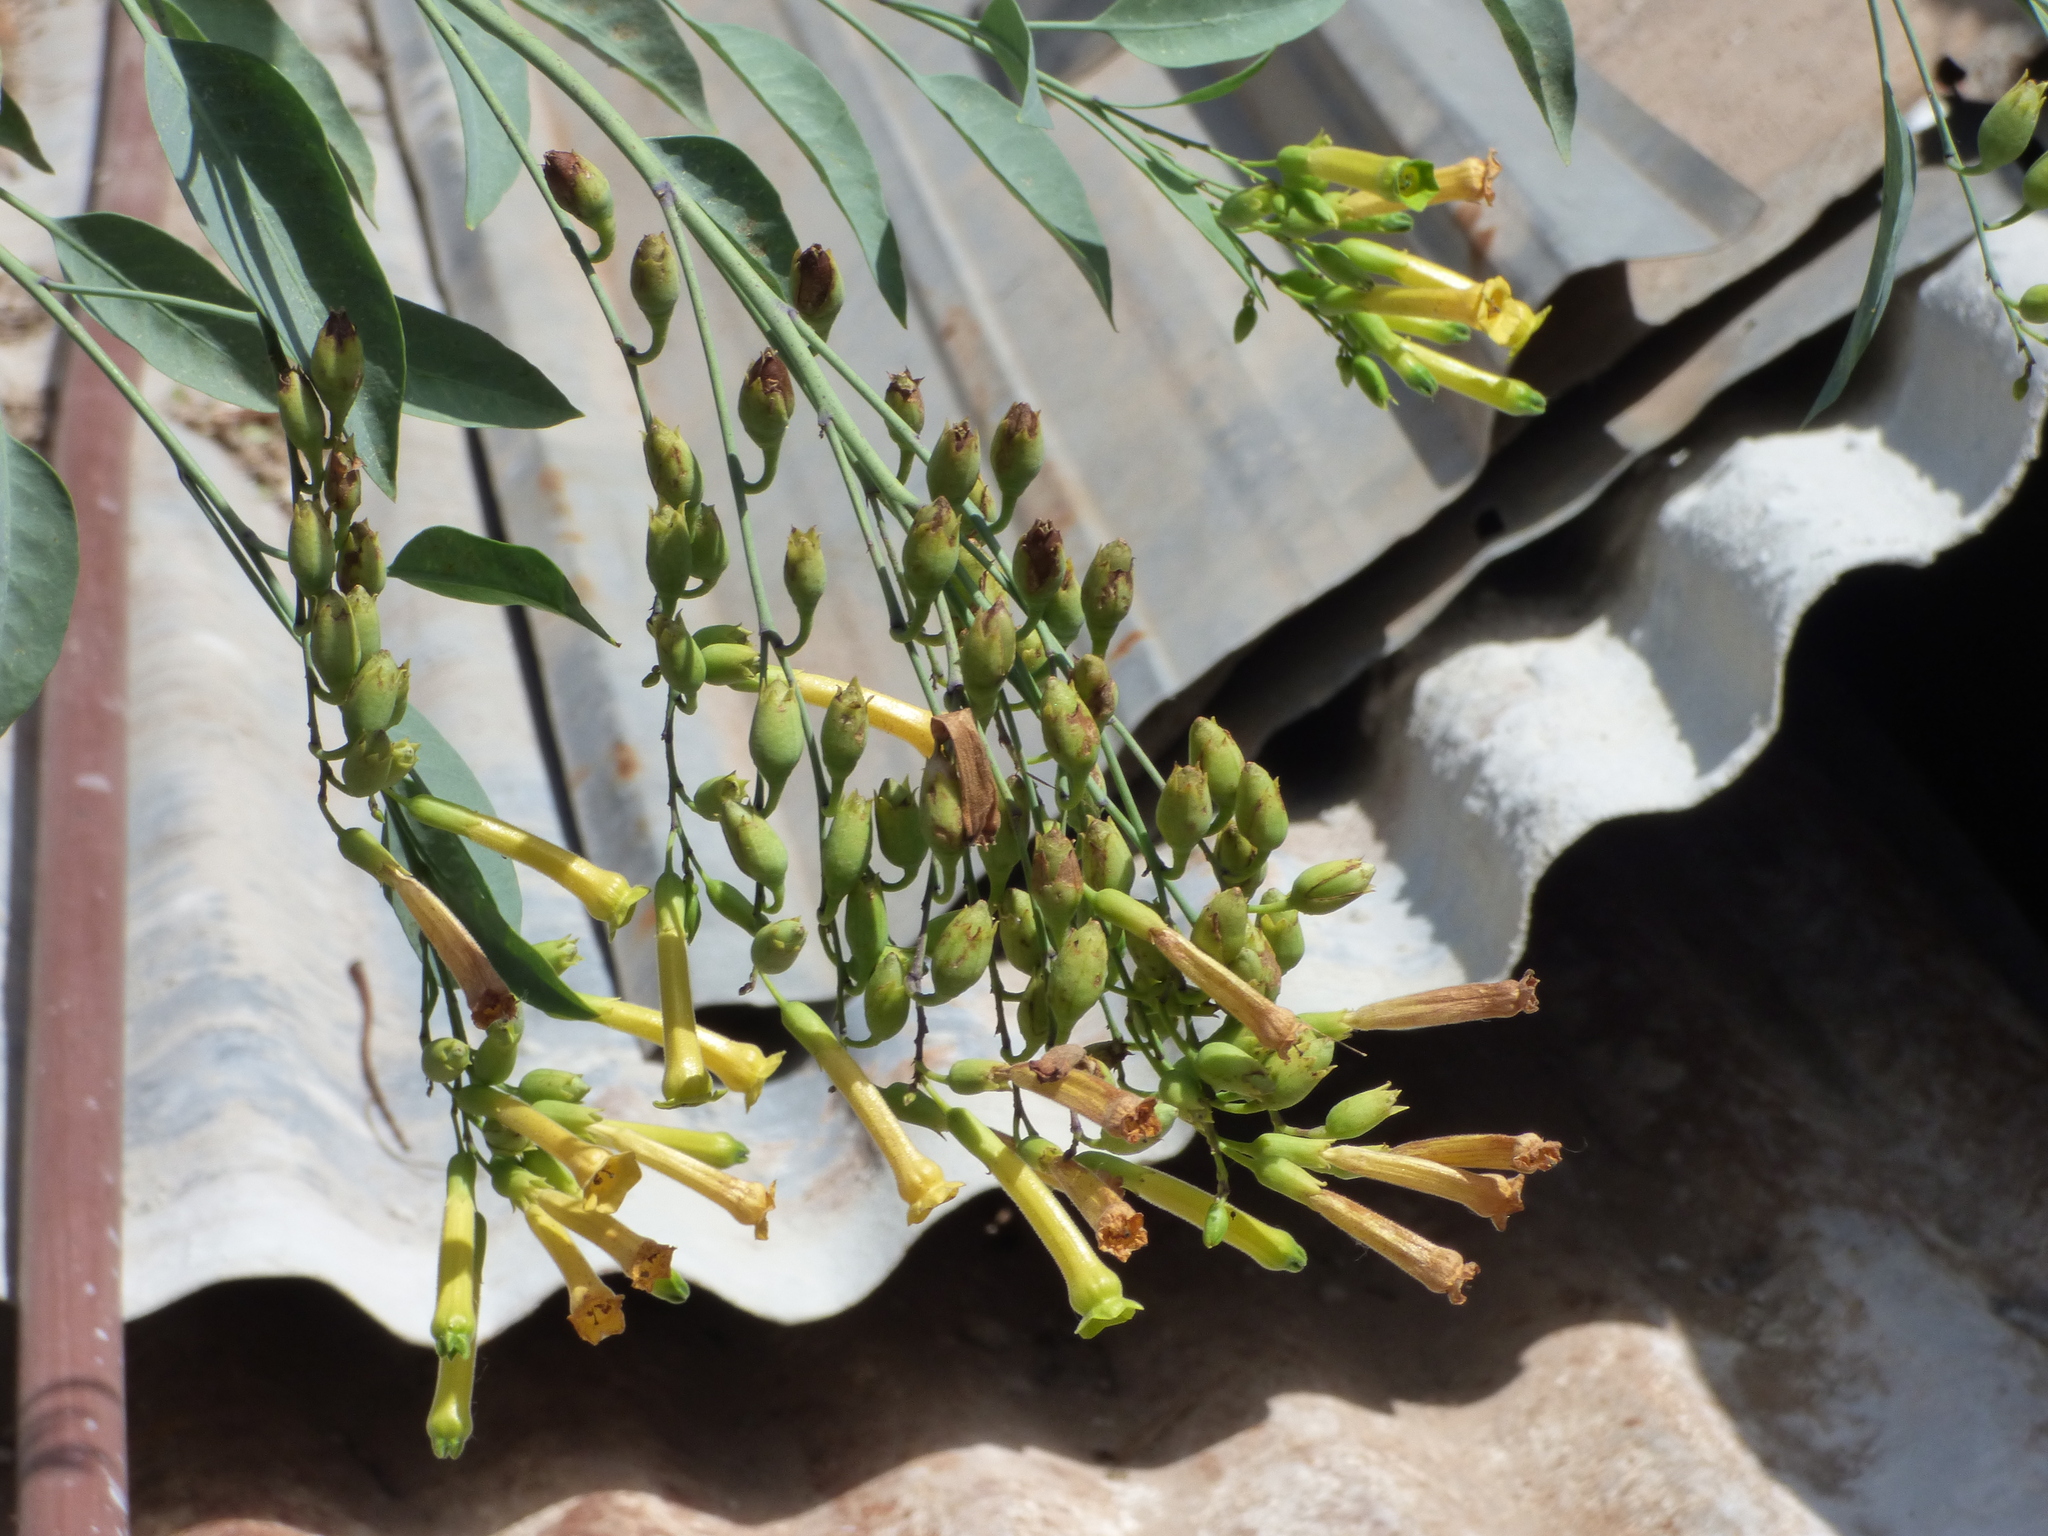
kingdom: Plantae
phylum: Tracheophyta
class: Magnoliopsida
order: Solanales
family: Solanaceae
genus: Nicotiana
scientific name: Nicotiana glauca
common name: Tree tobacco
